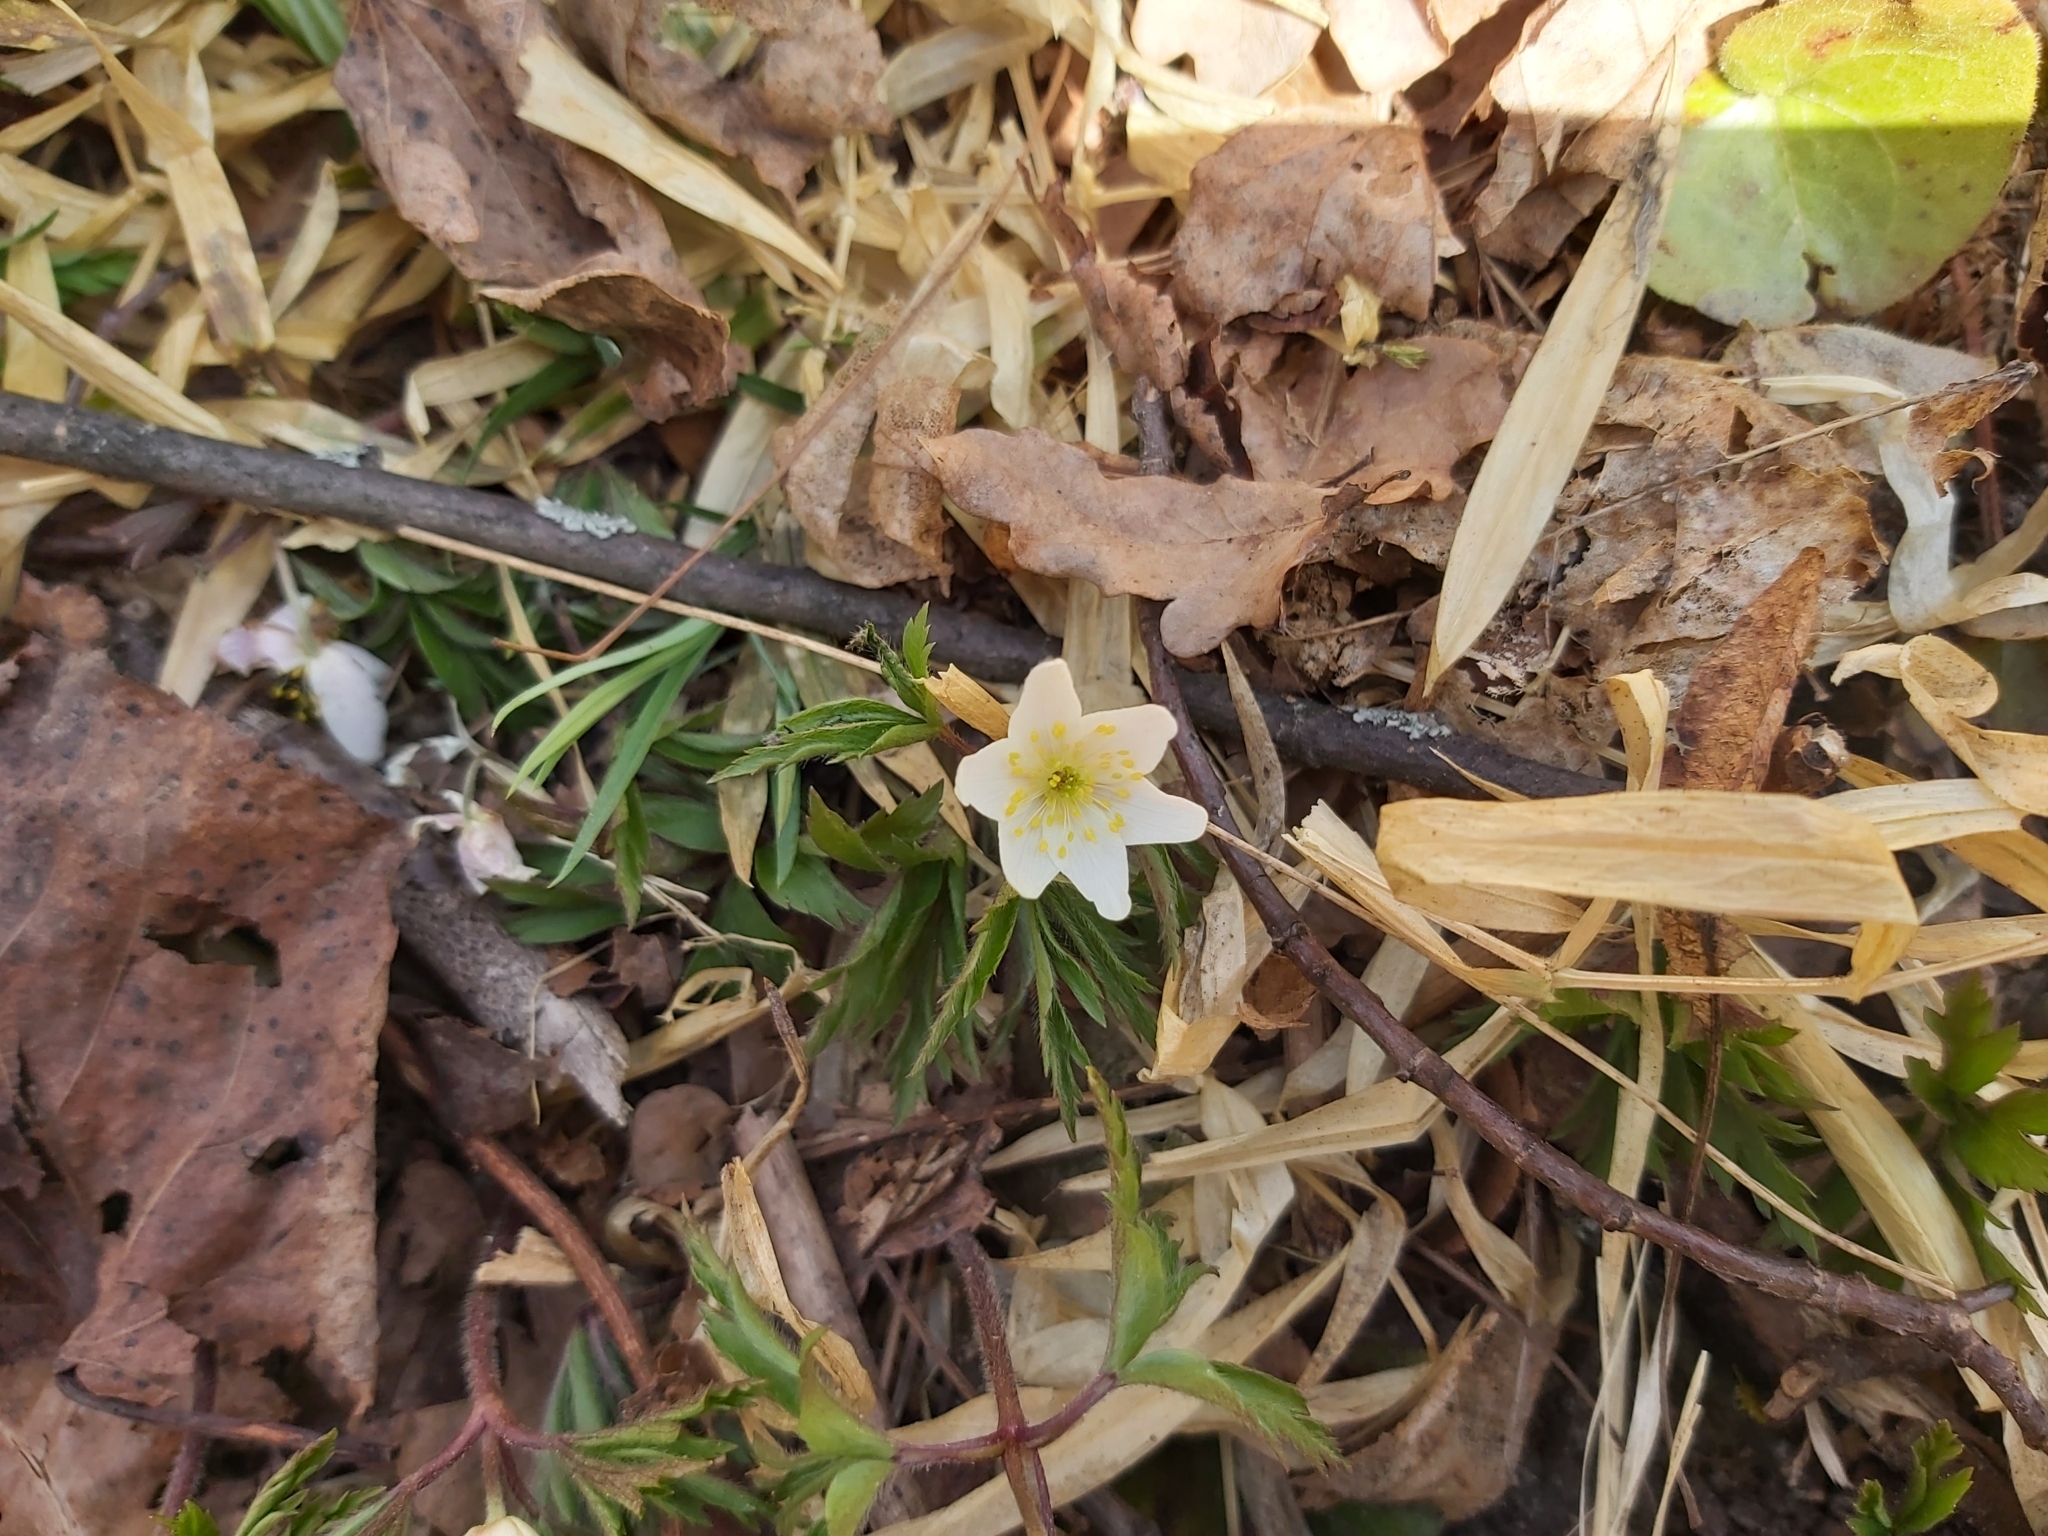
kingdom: Plantae
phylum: Tracheophyta
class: Magnoliopsida
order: Ranunculales
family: Ranunculaceae
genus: Anemone
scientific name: Anemone nemorosa
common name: Wood anemone
